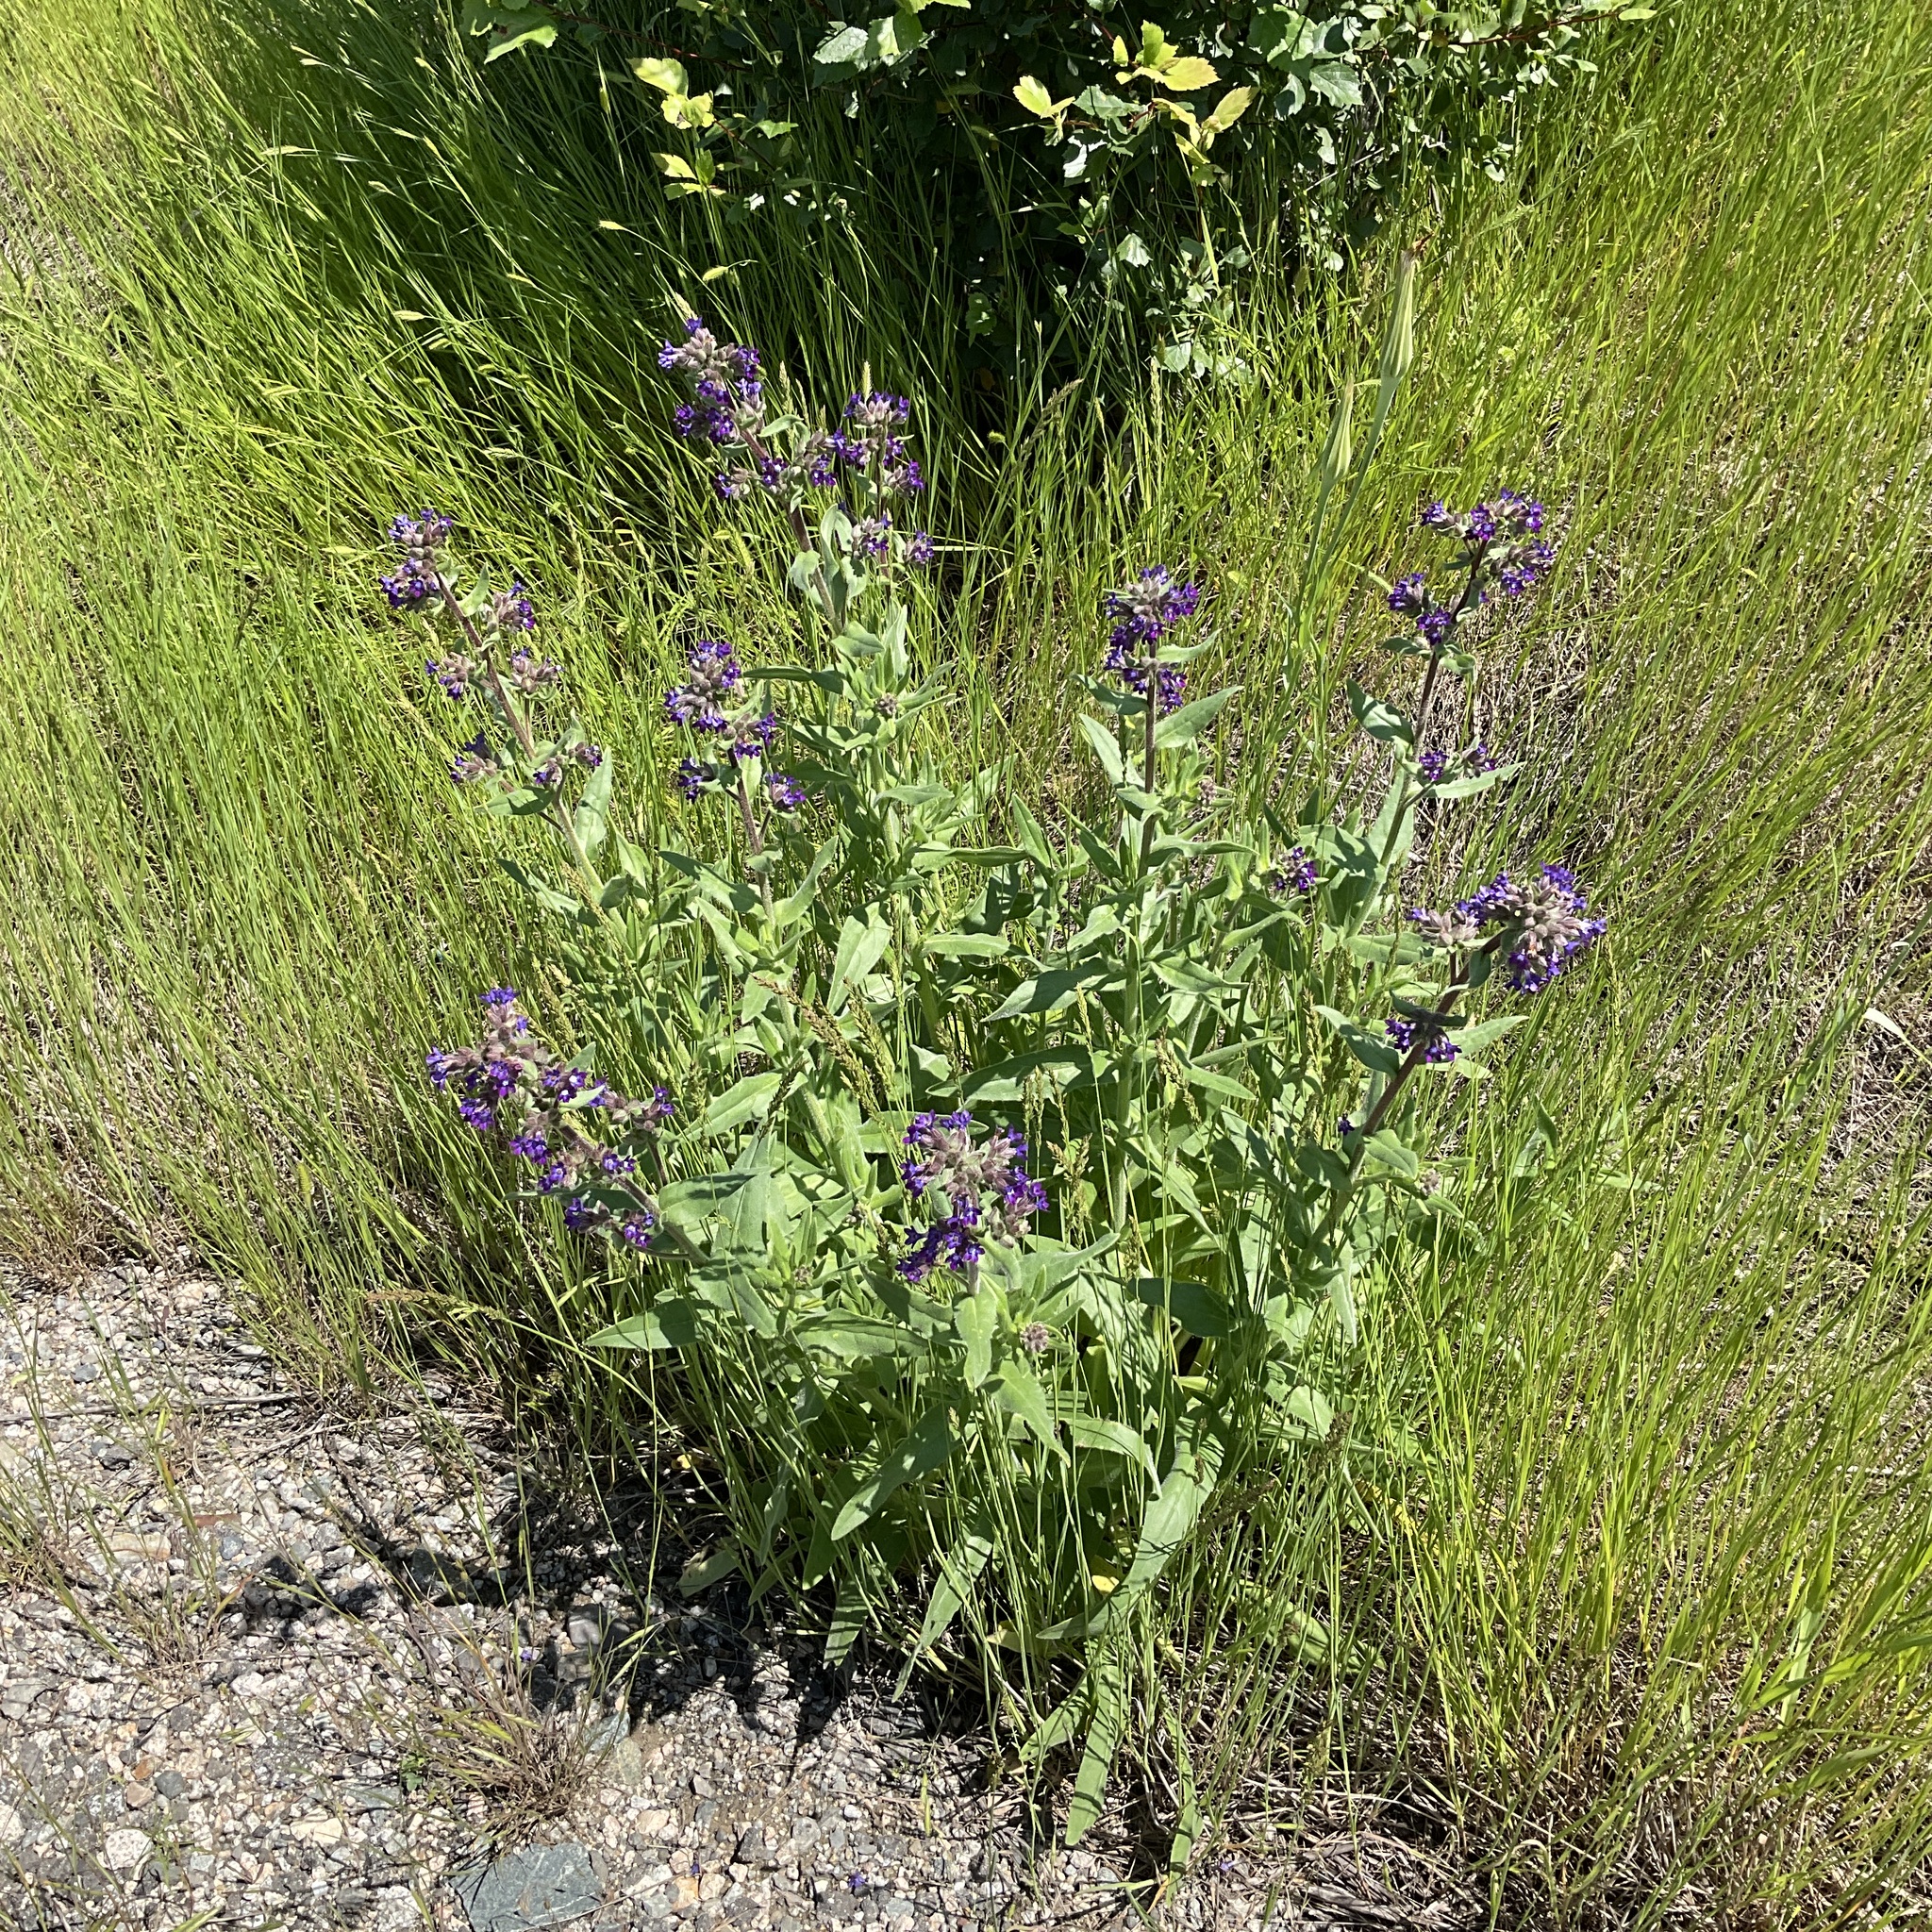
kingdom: Plantae
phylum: Tracheophyta
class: Magnoliopsida
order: Boraginales
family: Boraginaceae
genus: Anchusa
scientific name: Anchusa officinalis
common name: Alkanet
